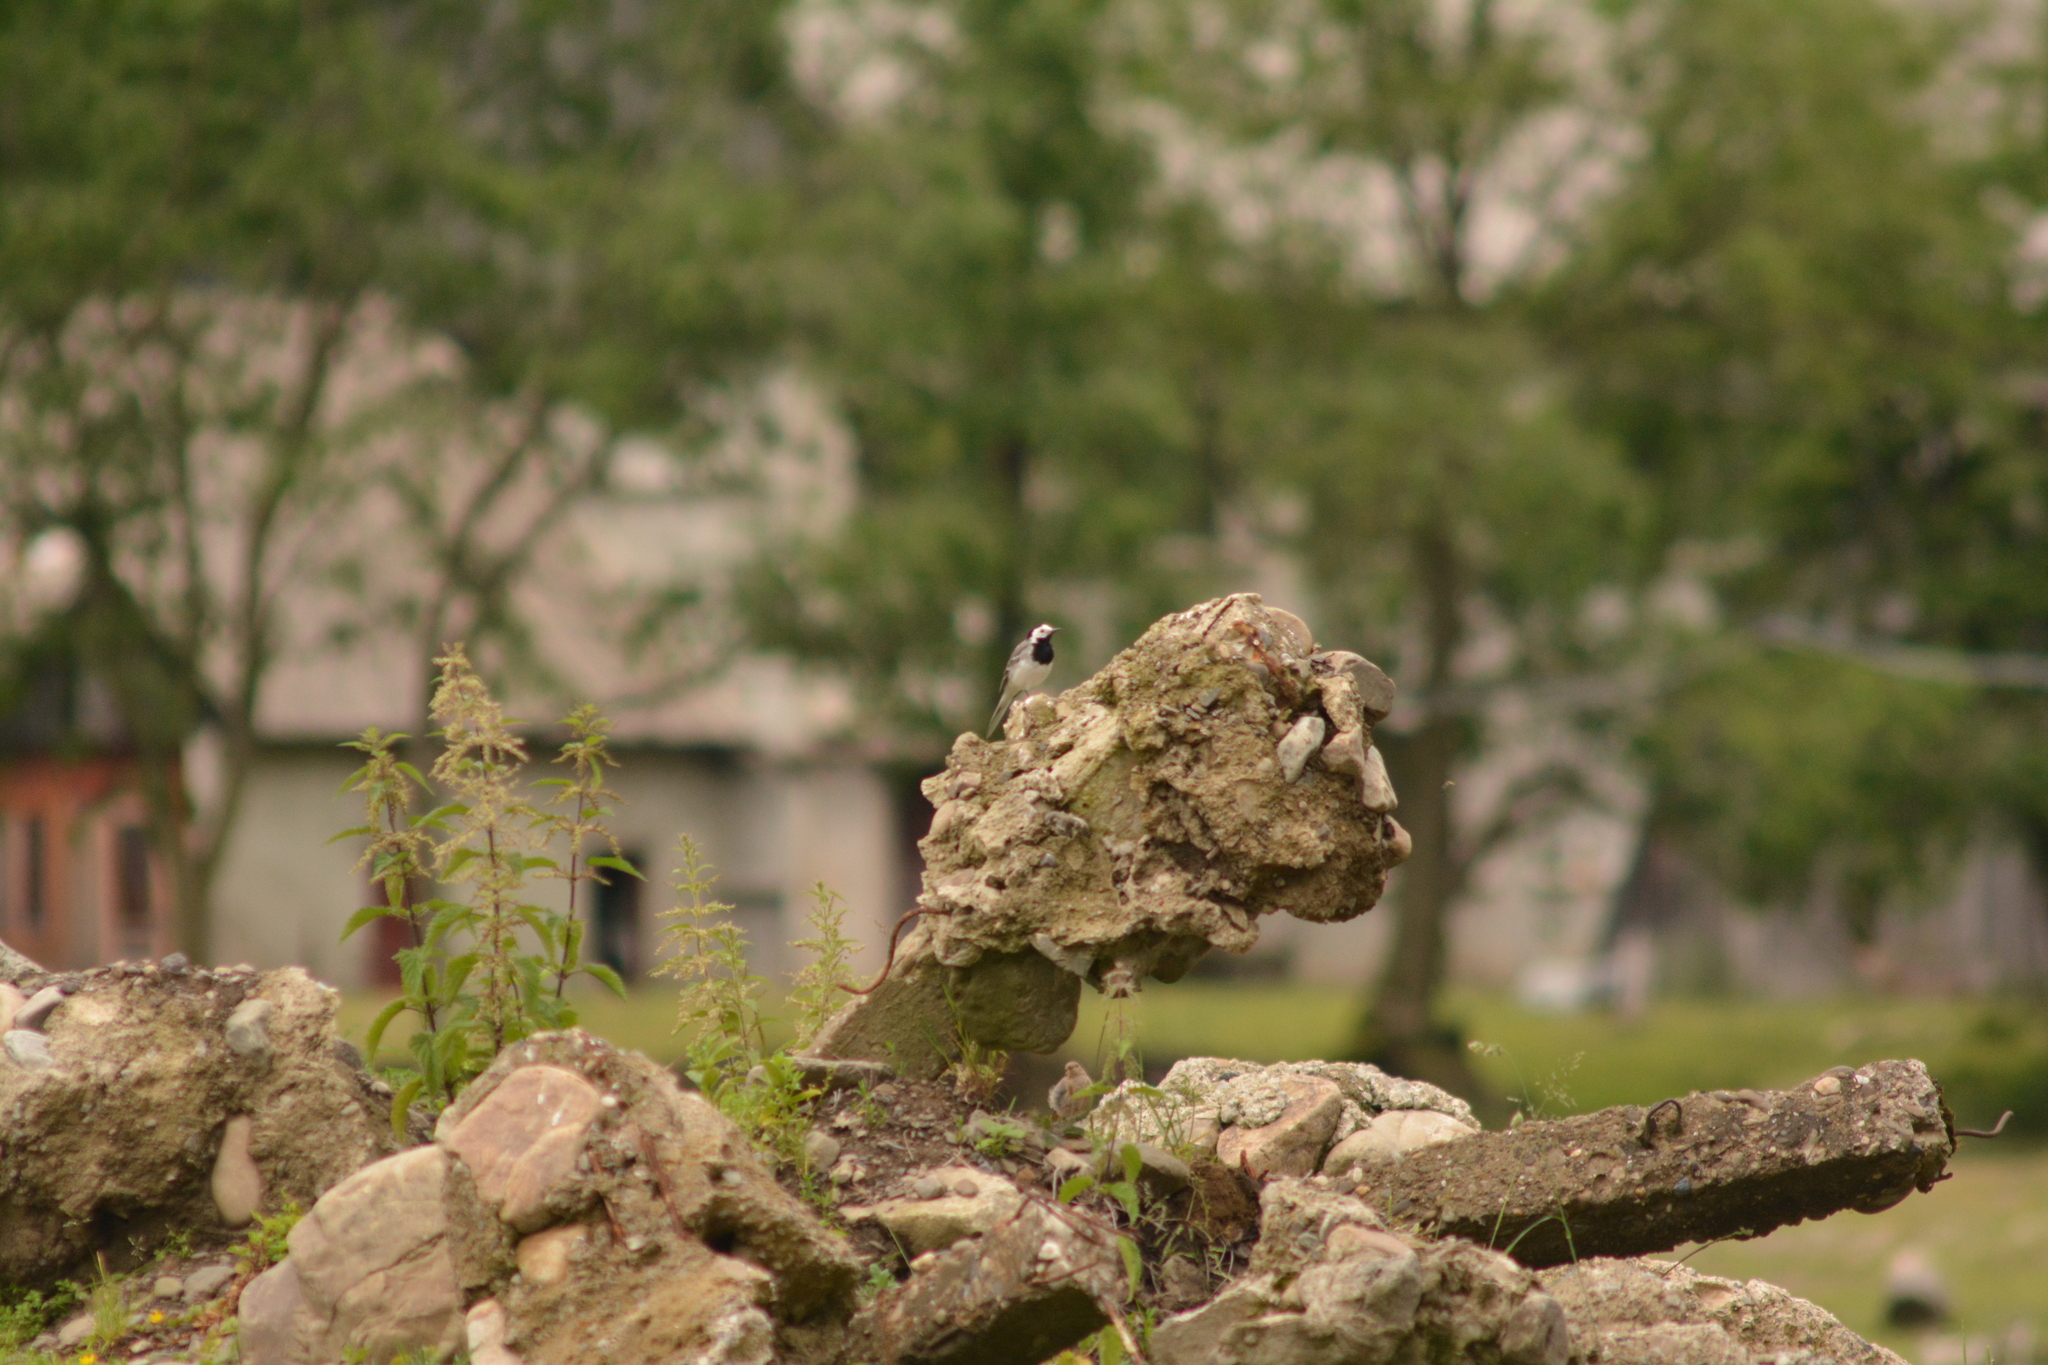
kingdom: Animalia
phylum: Chordata
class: Aves
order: Passeriformes
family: Motacillidae
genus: Motacilla
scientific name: Motacilla alba
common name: White wagtail
